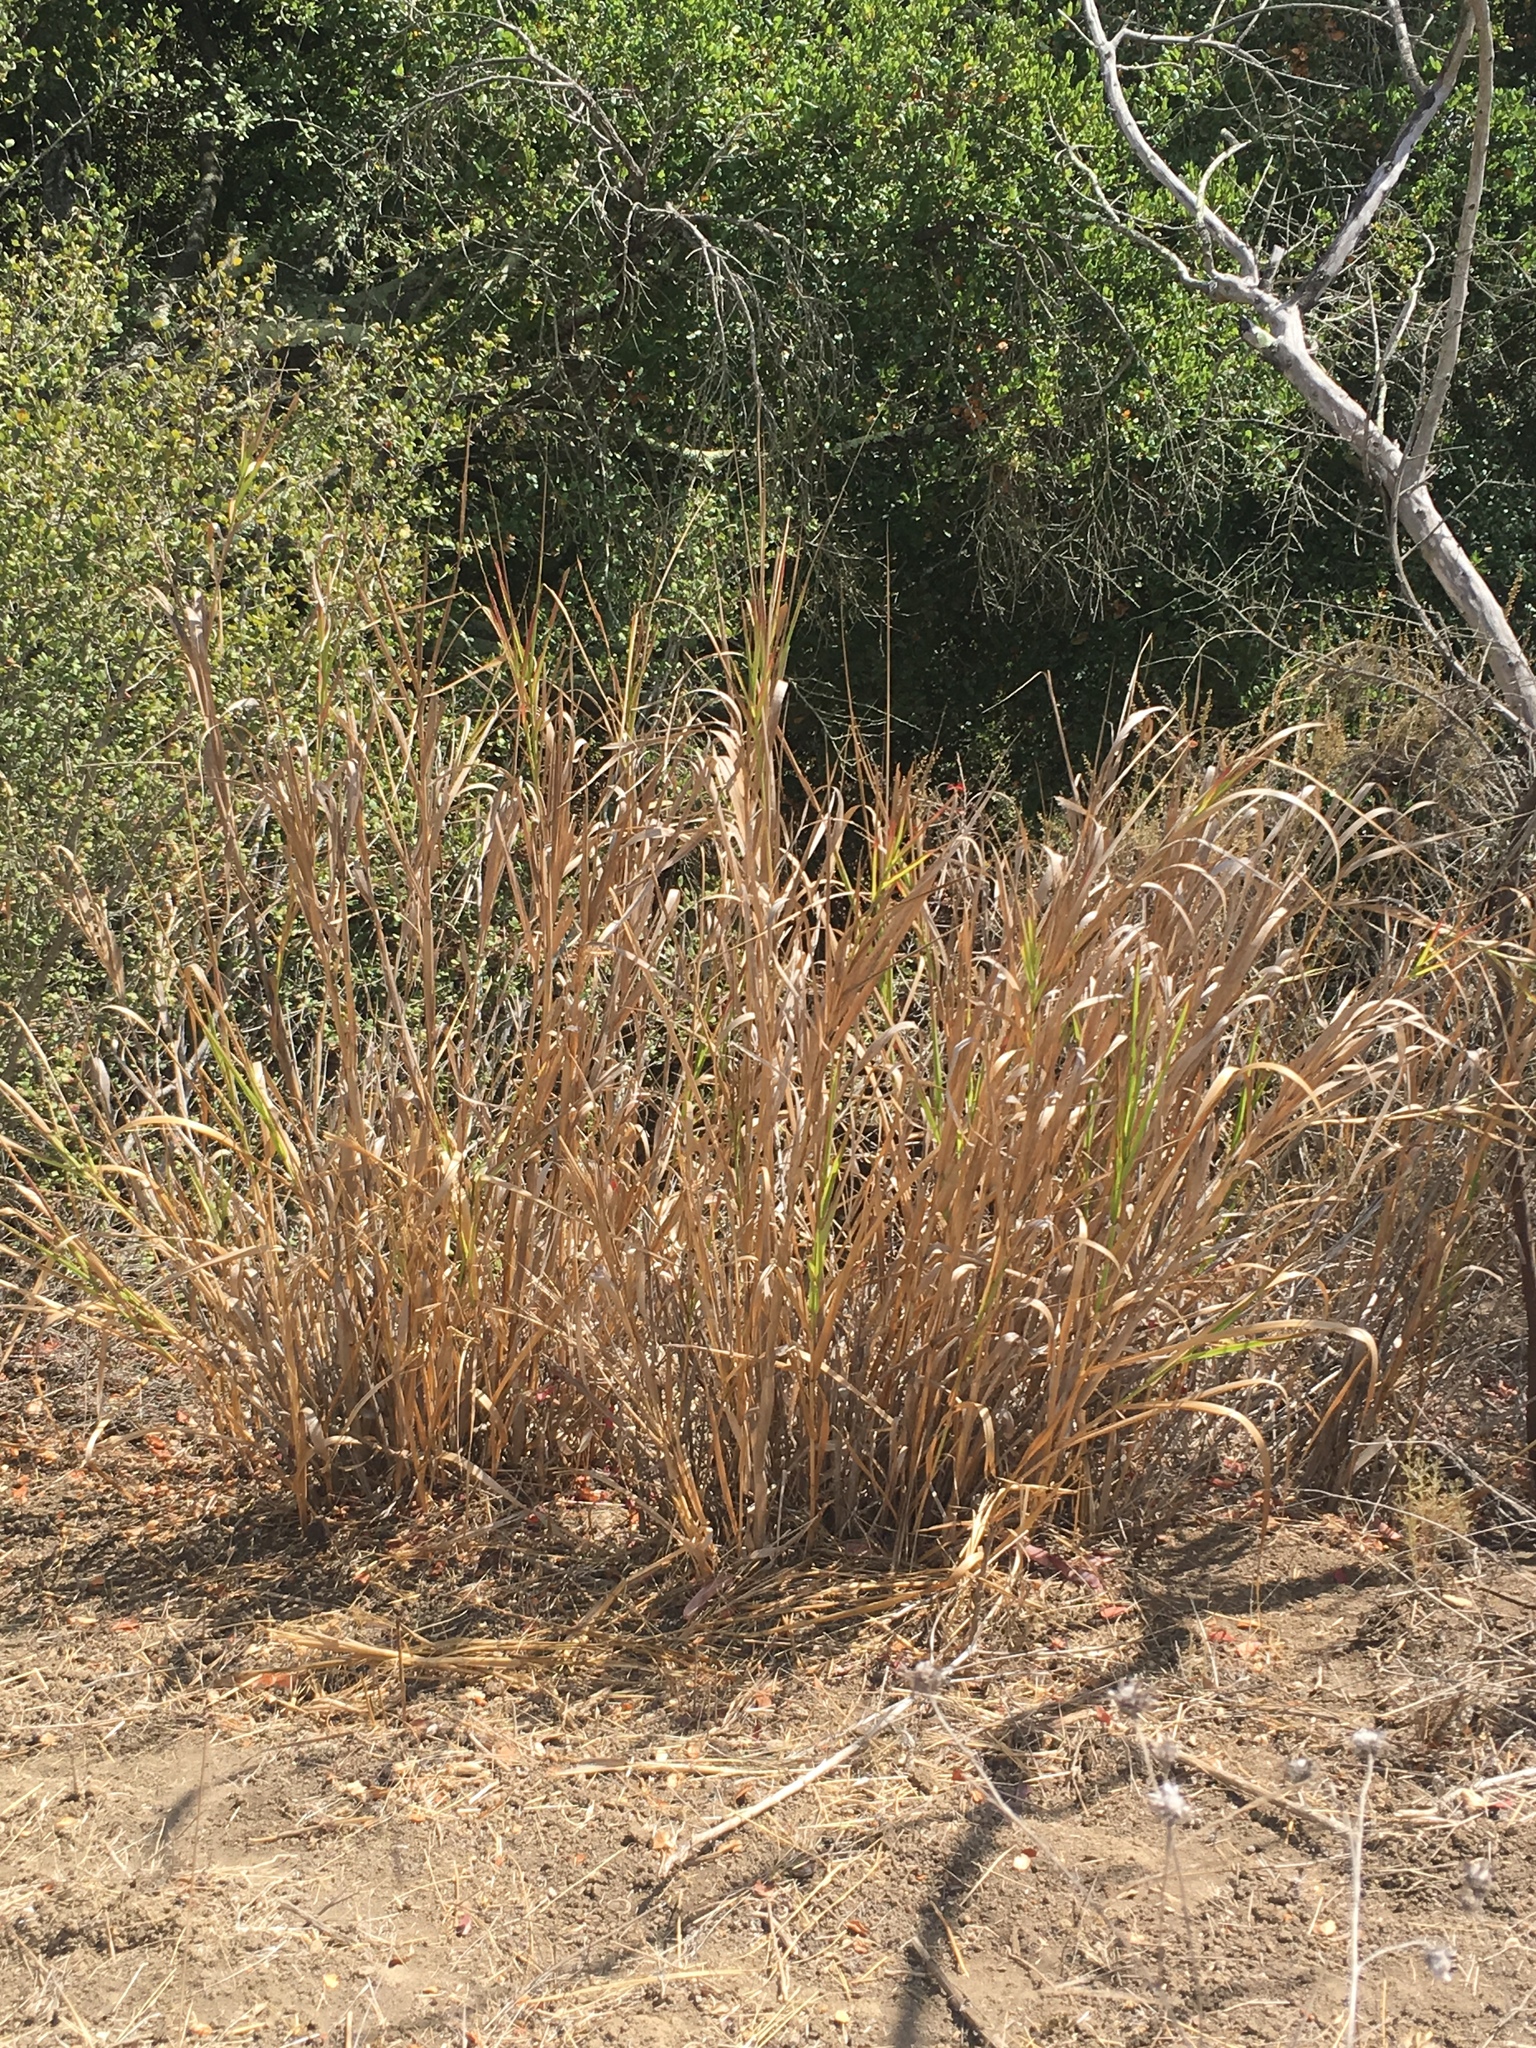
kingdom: Plantae
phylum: Tracheophyta
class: Liliopsida
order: Poales
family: Poaceae
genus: Leymus
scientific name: Leymus condensatus
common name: Giant wild rye
